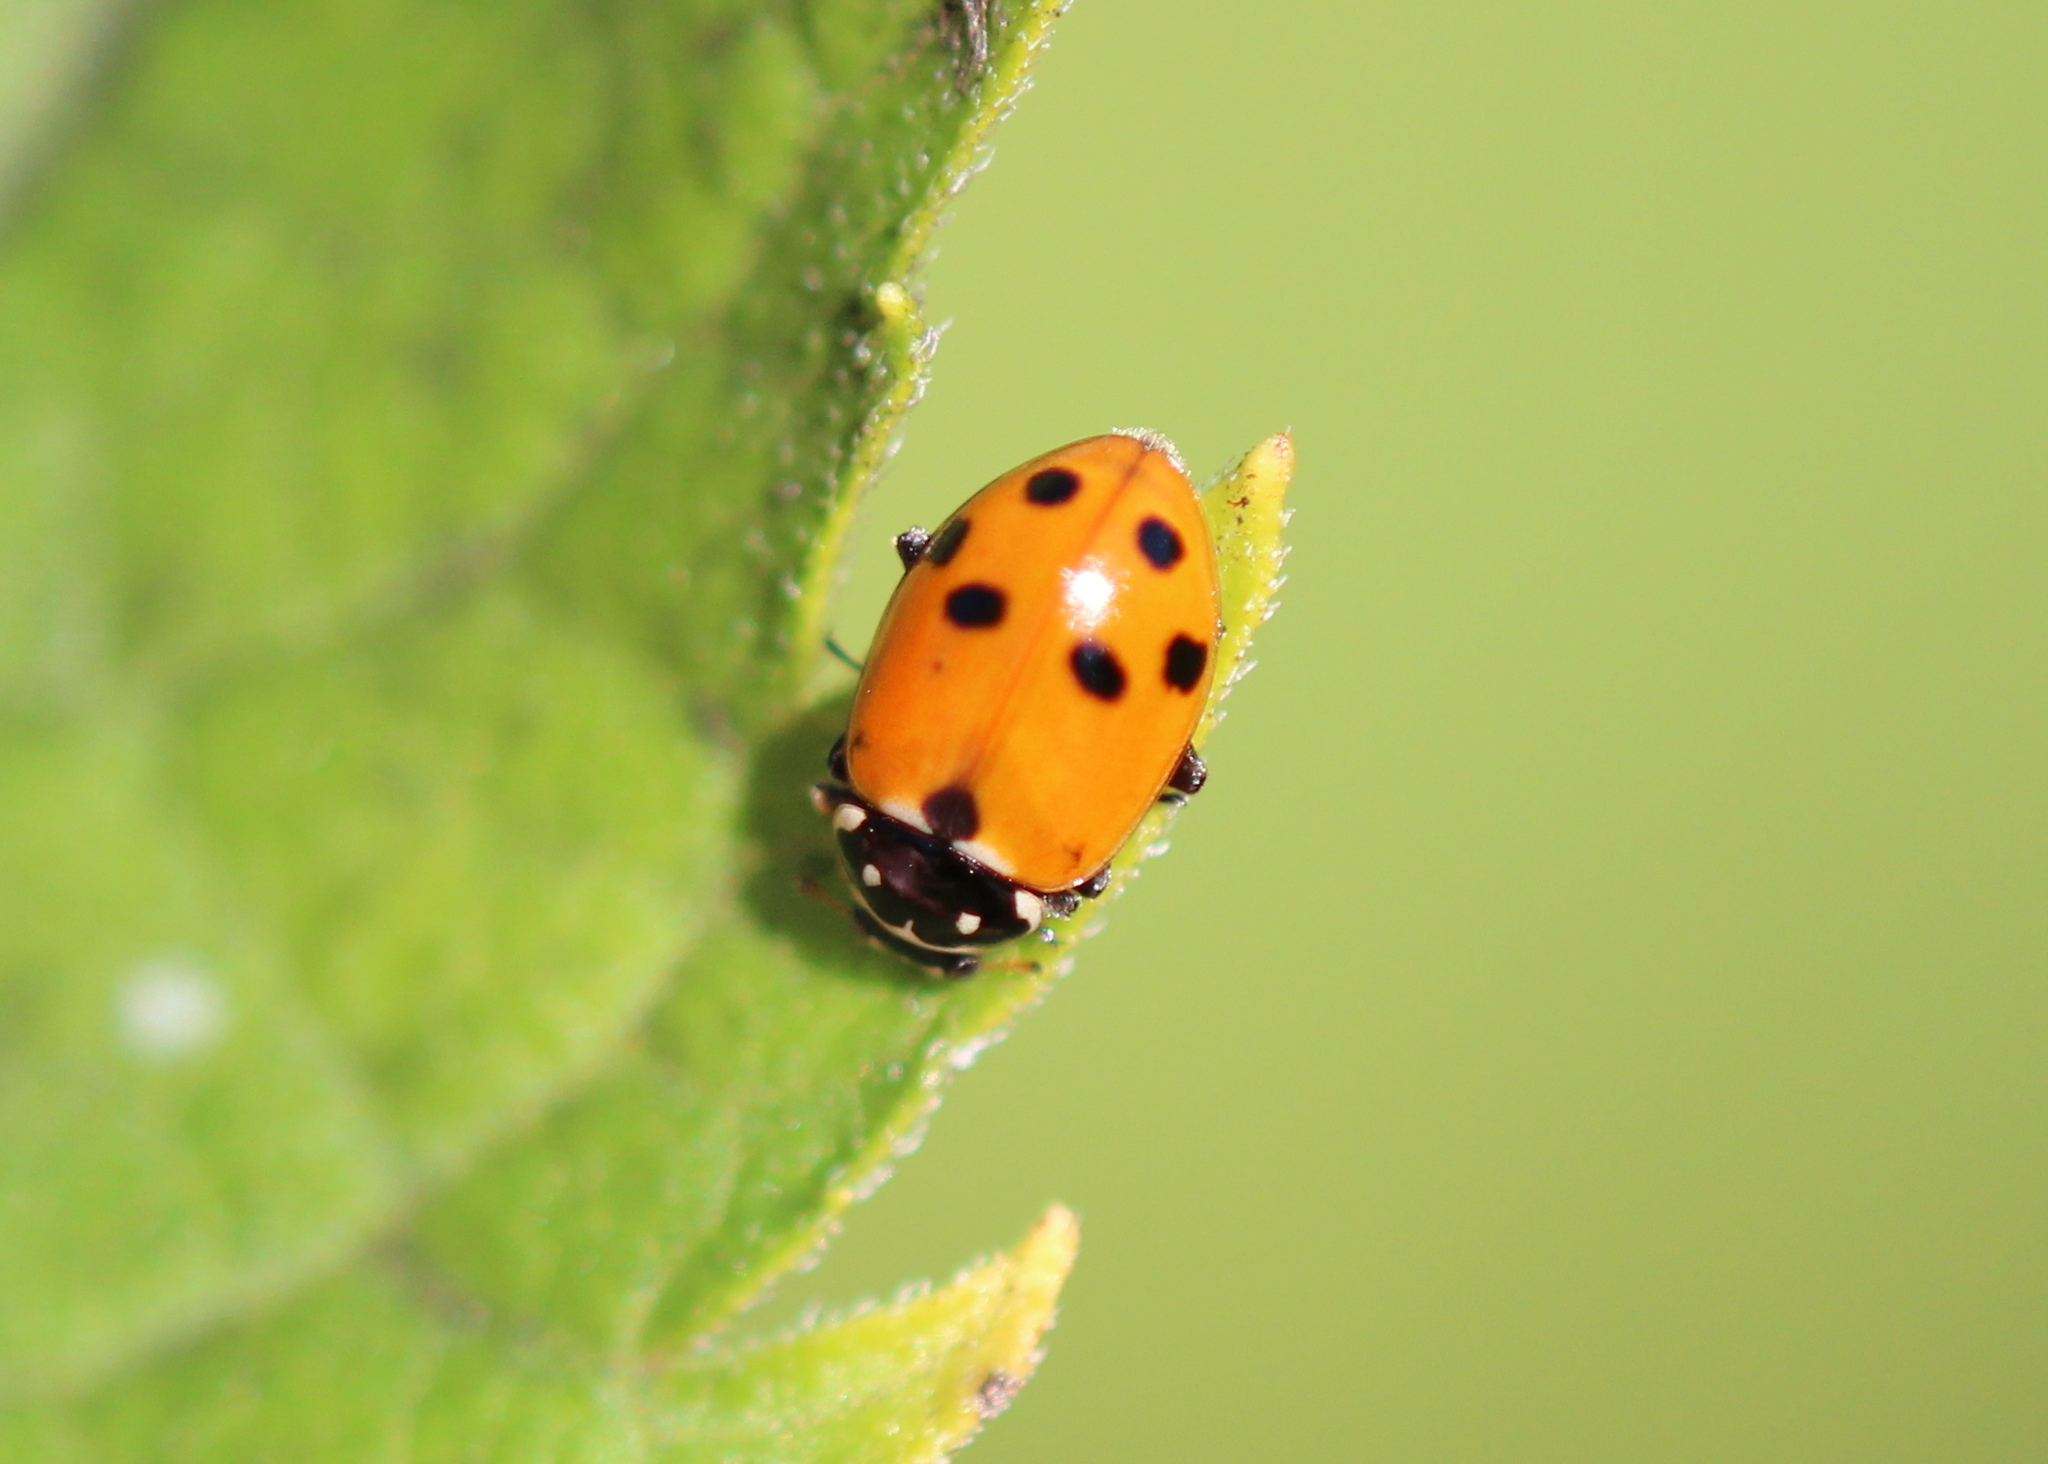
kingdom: Animalia
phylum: Arthropoda
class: Insecta
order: Coleoptera
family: Coccinellidae
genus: Hippodamia
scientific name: Hippodamia variegata
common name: Ladybird beetle
